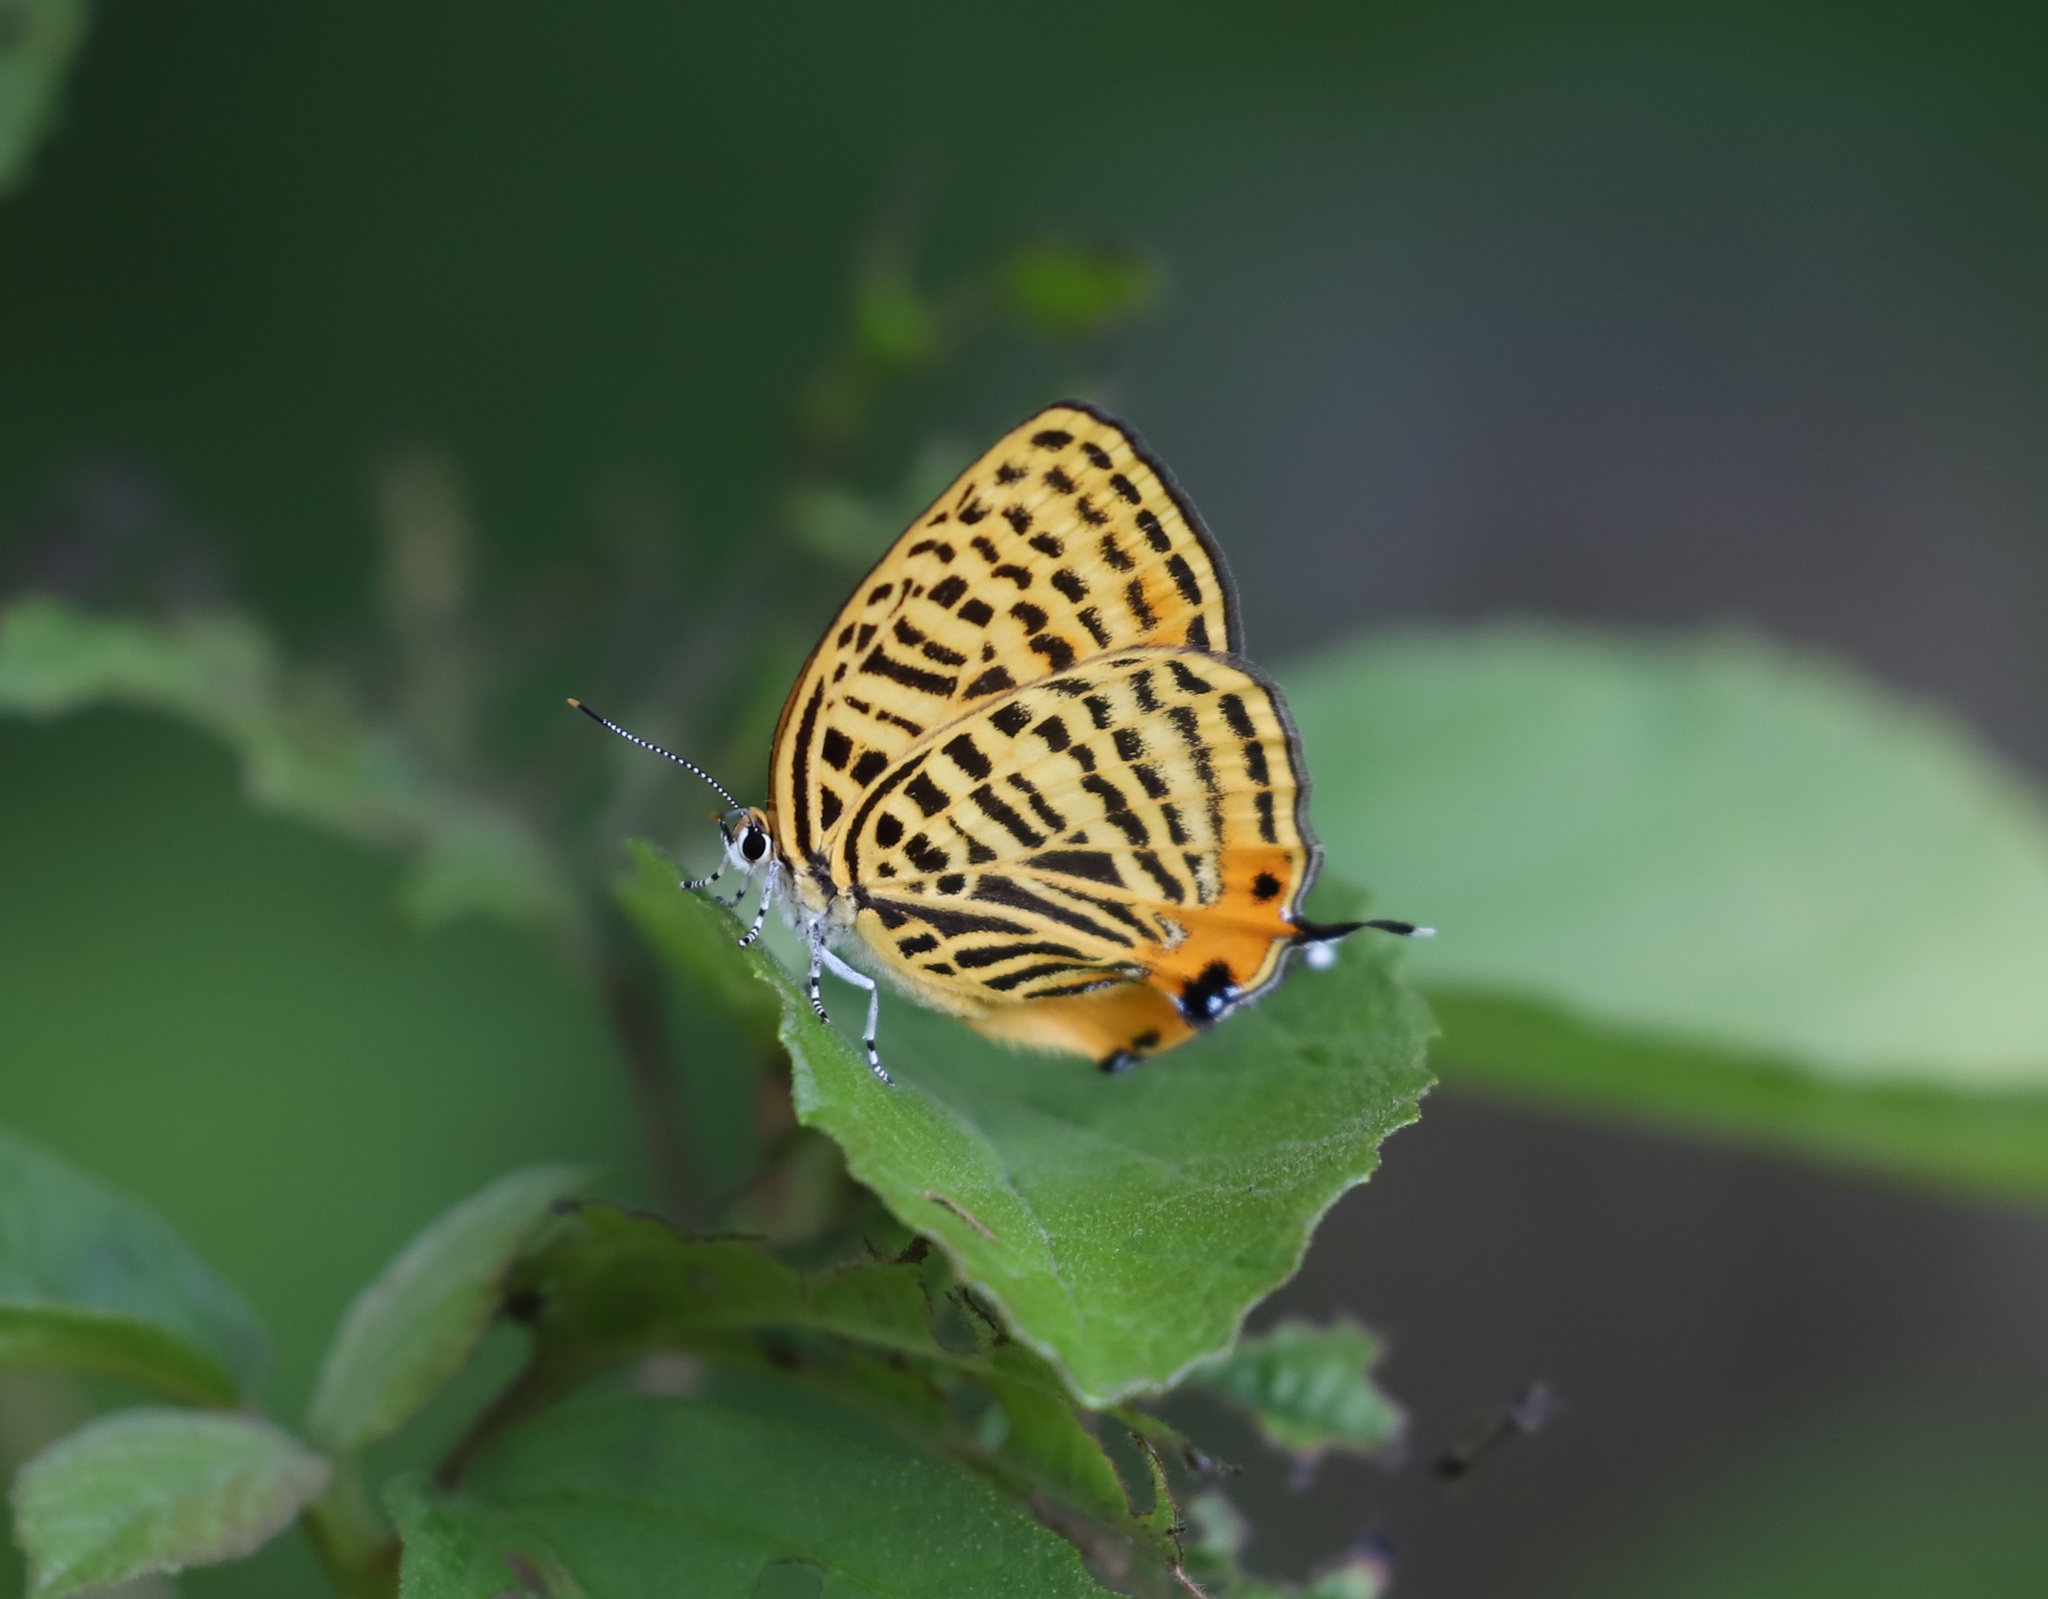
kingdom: Animalia
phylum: Arthropoda
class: Insecta
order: Lepidoptera
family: Lycaenidae
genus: Japonica
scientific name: Japonica saepestriata
